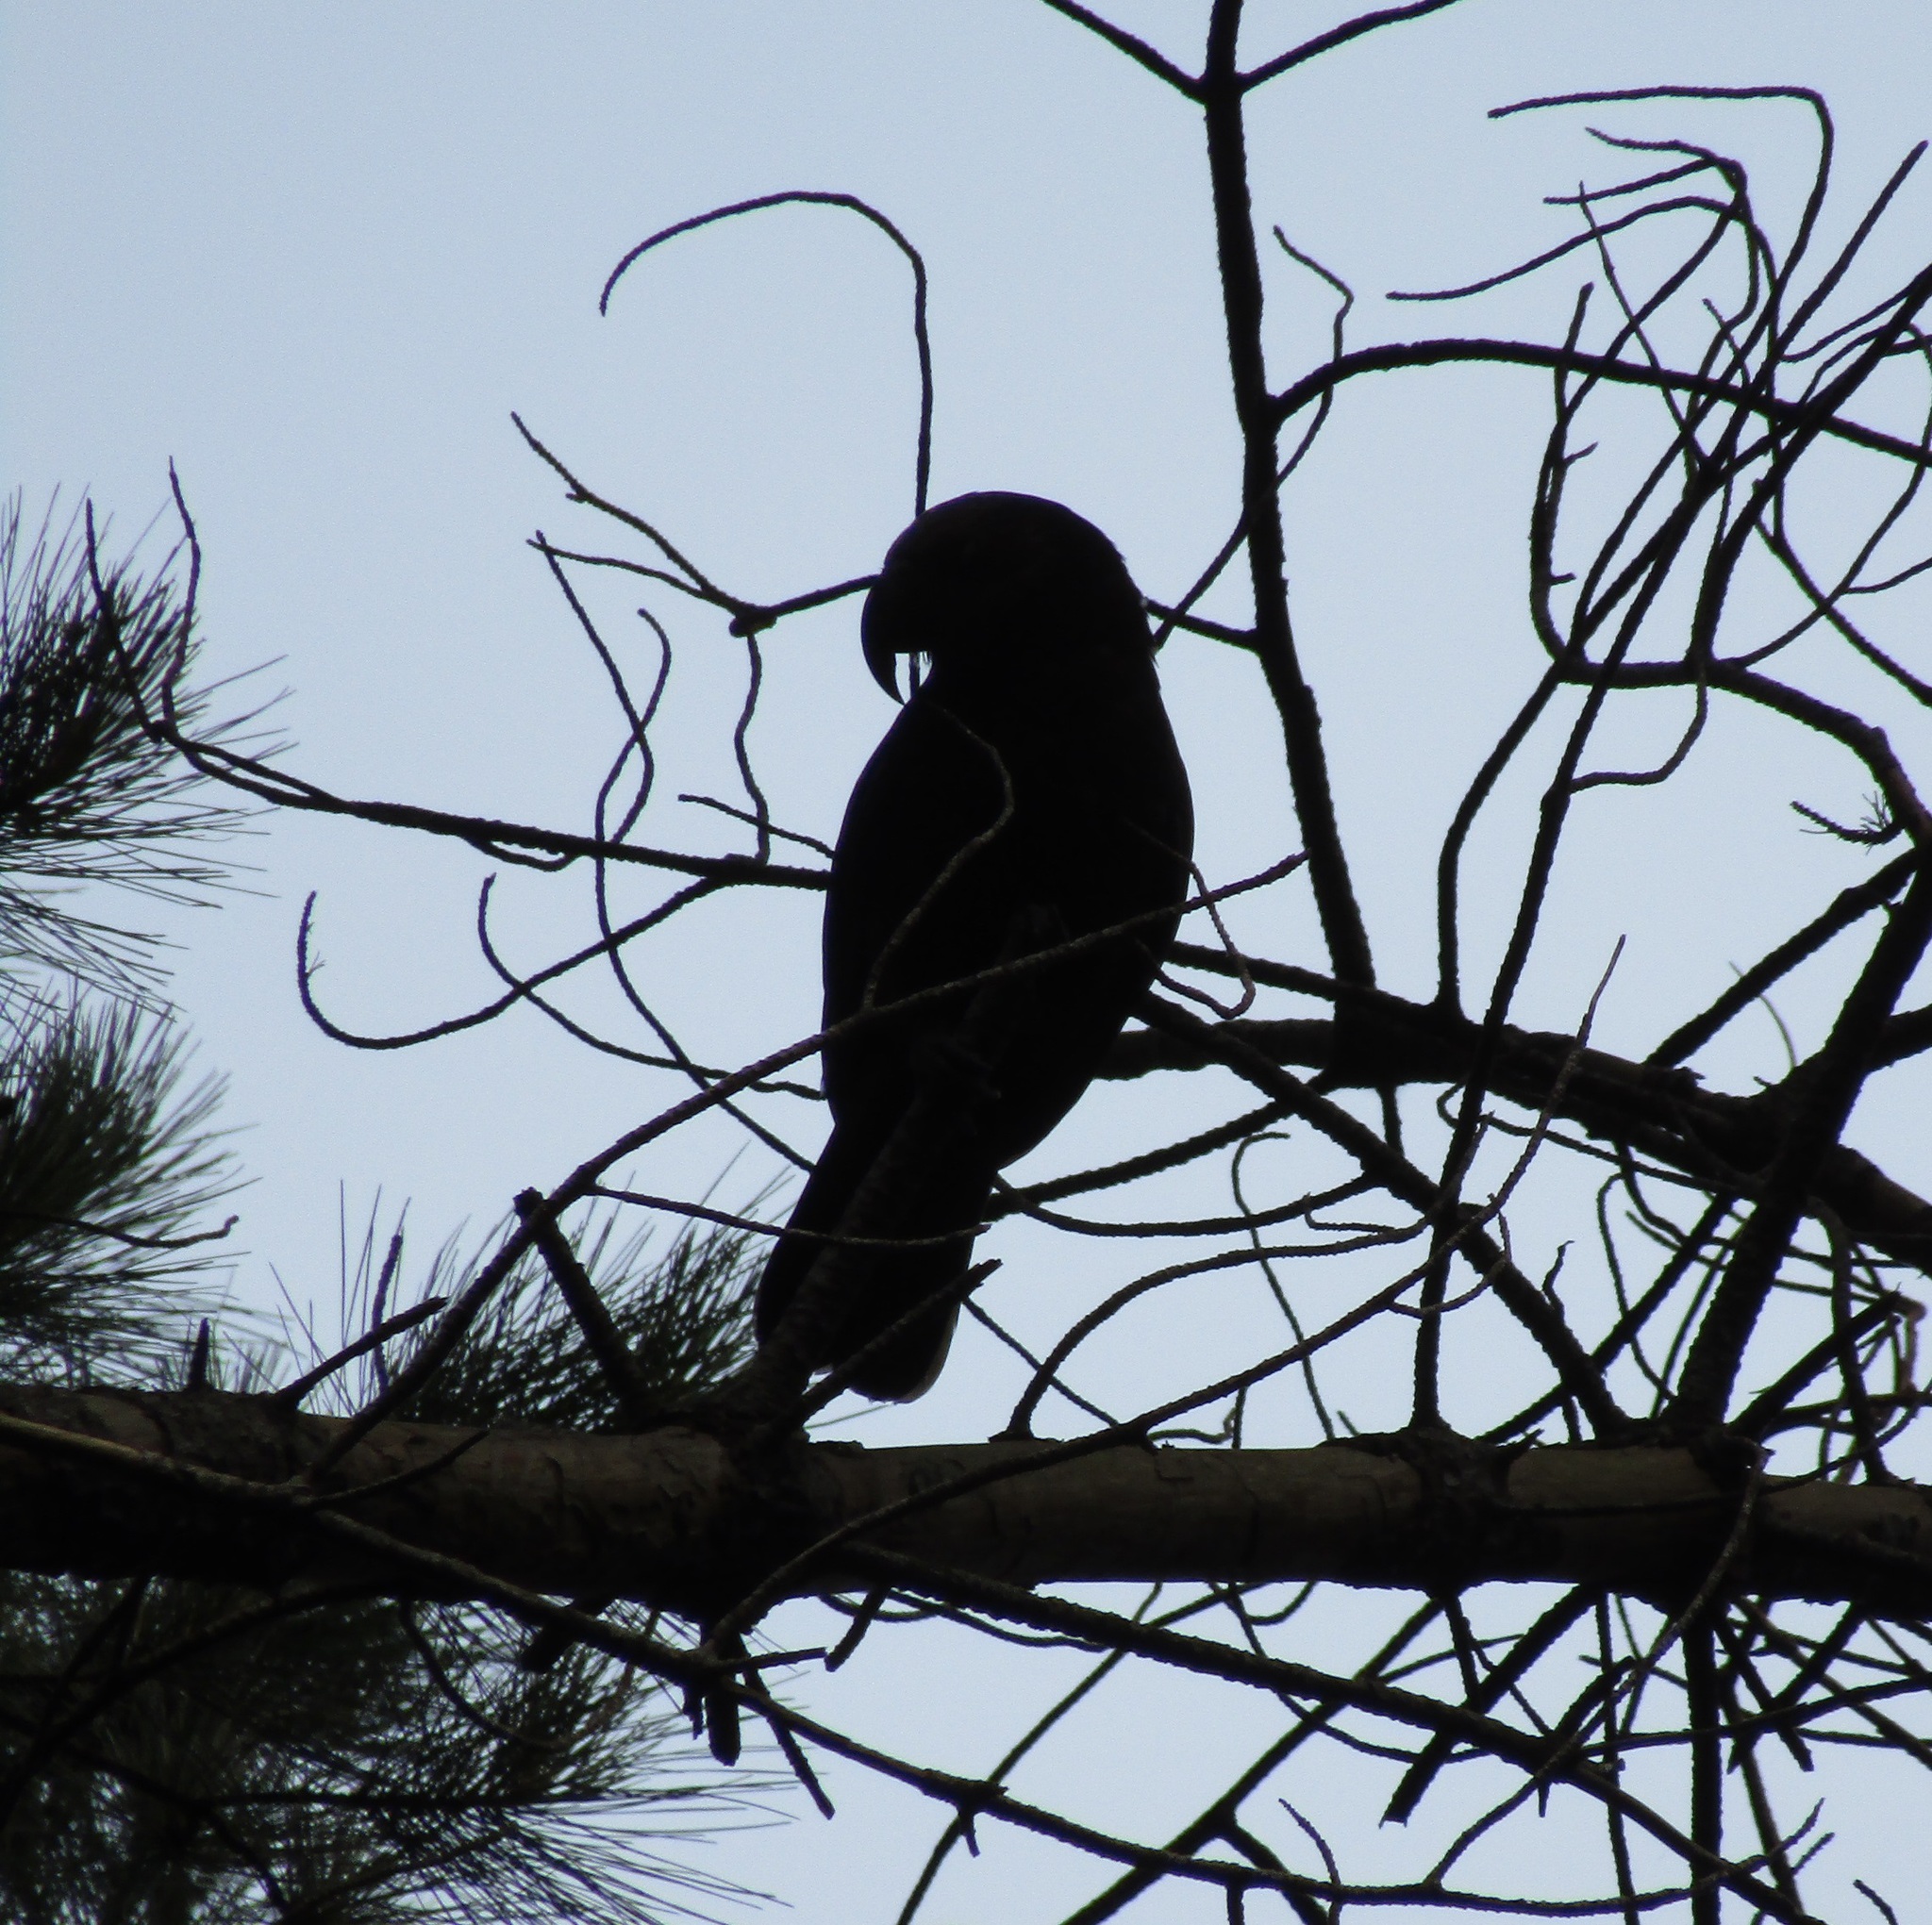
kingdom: Animalia
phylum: Chordata
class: Aves
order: Psittaciformes
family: Psittacidae
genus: Nestor
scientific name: Nestor meridionalis
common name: New zealand kaka
